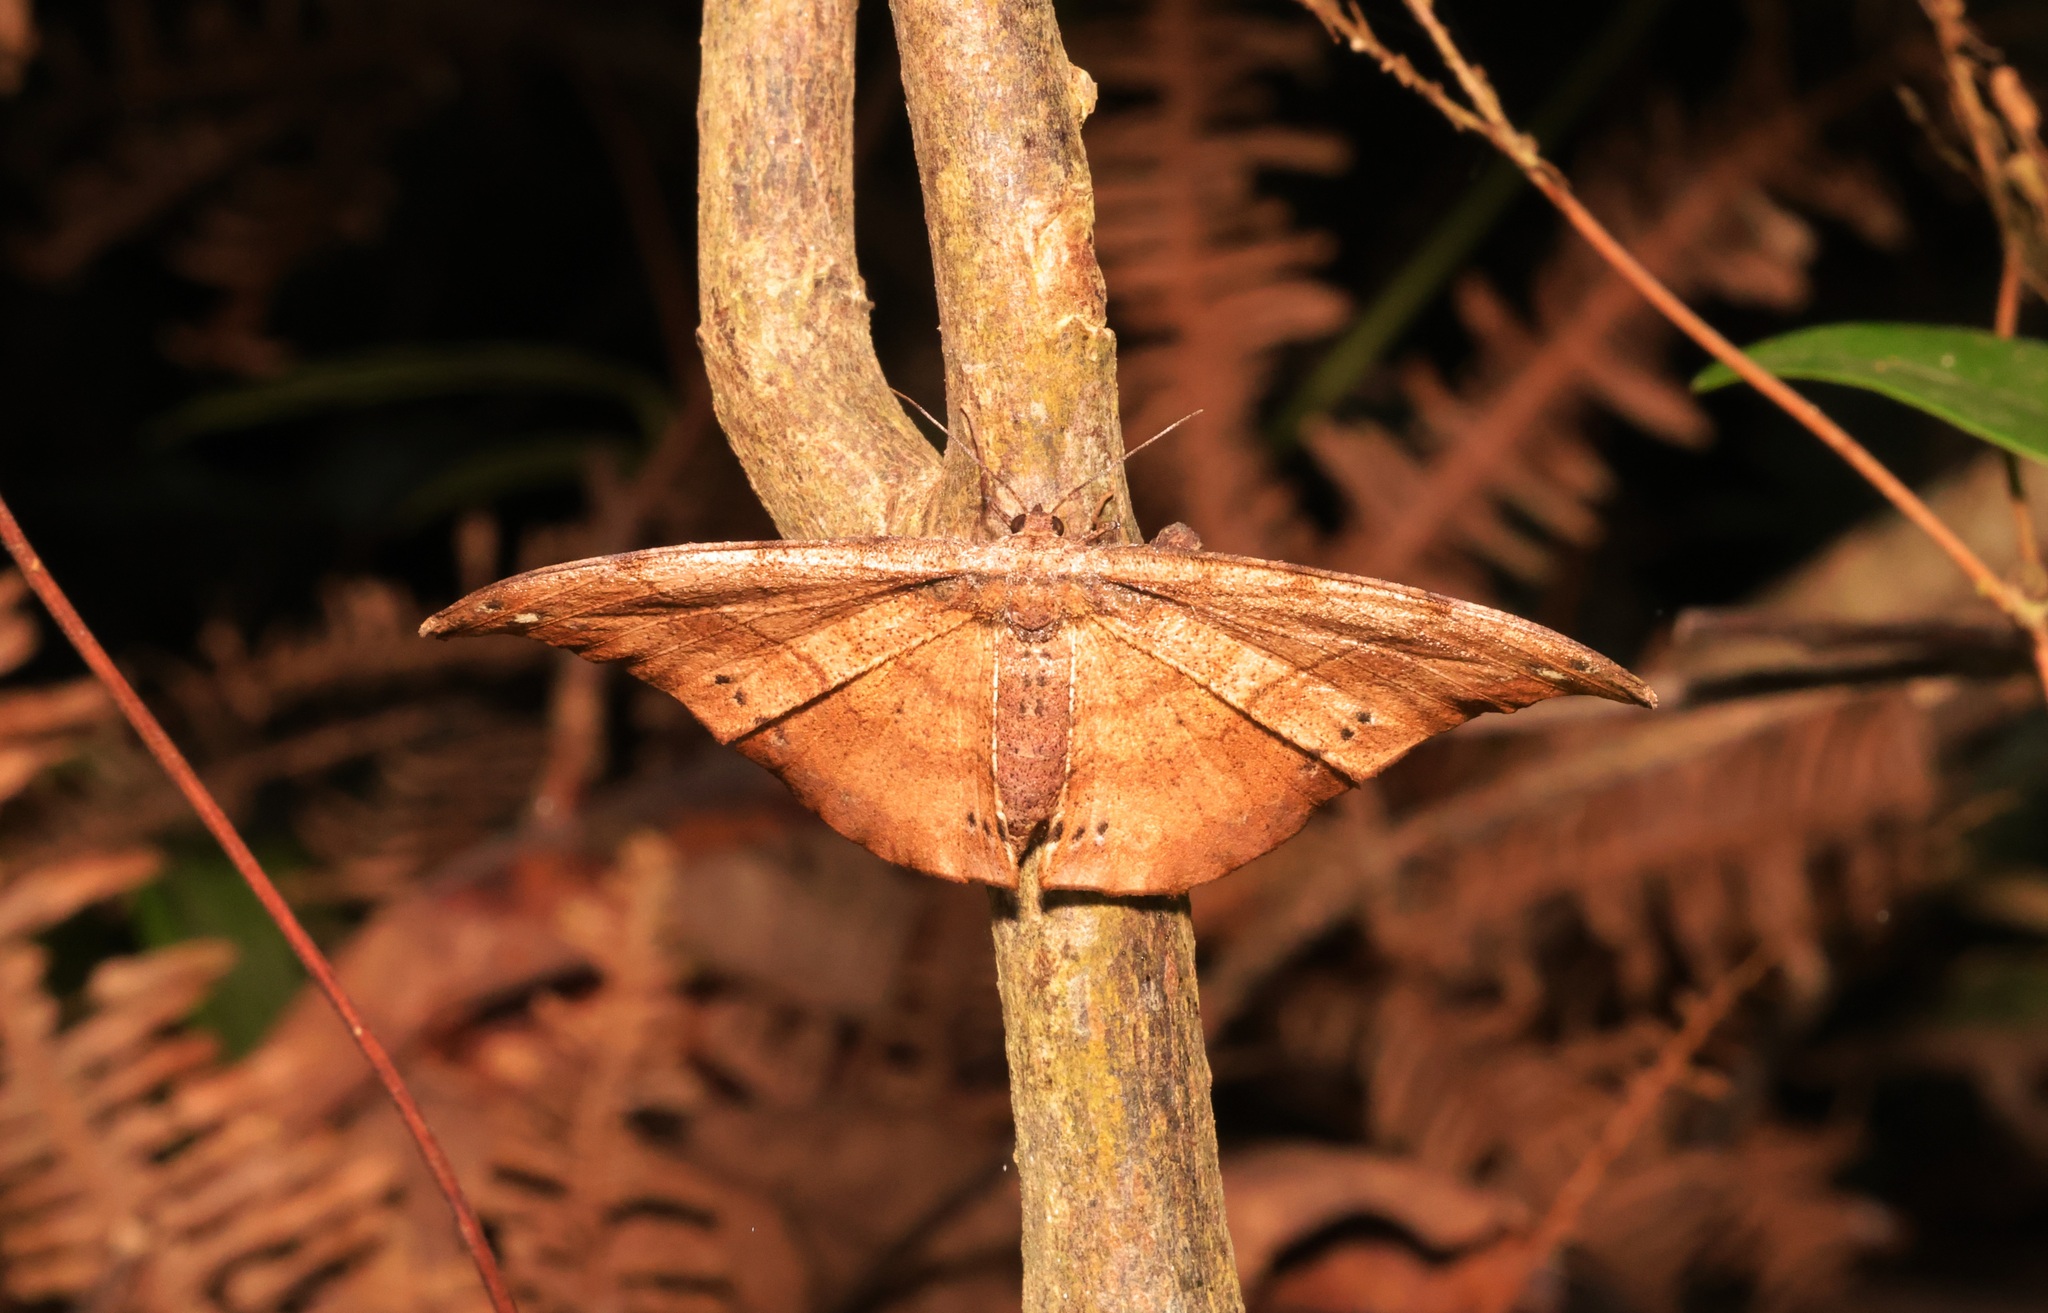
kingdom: Animalia
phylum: Arthropoda
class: Insecta
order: Lepidoptera
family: Geometridae
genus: Hyposidra
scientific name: Hyposidra infixaria
